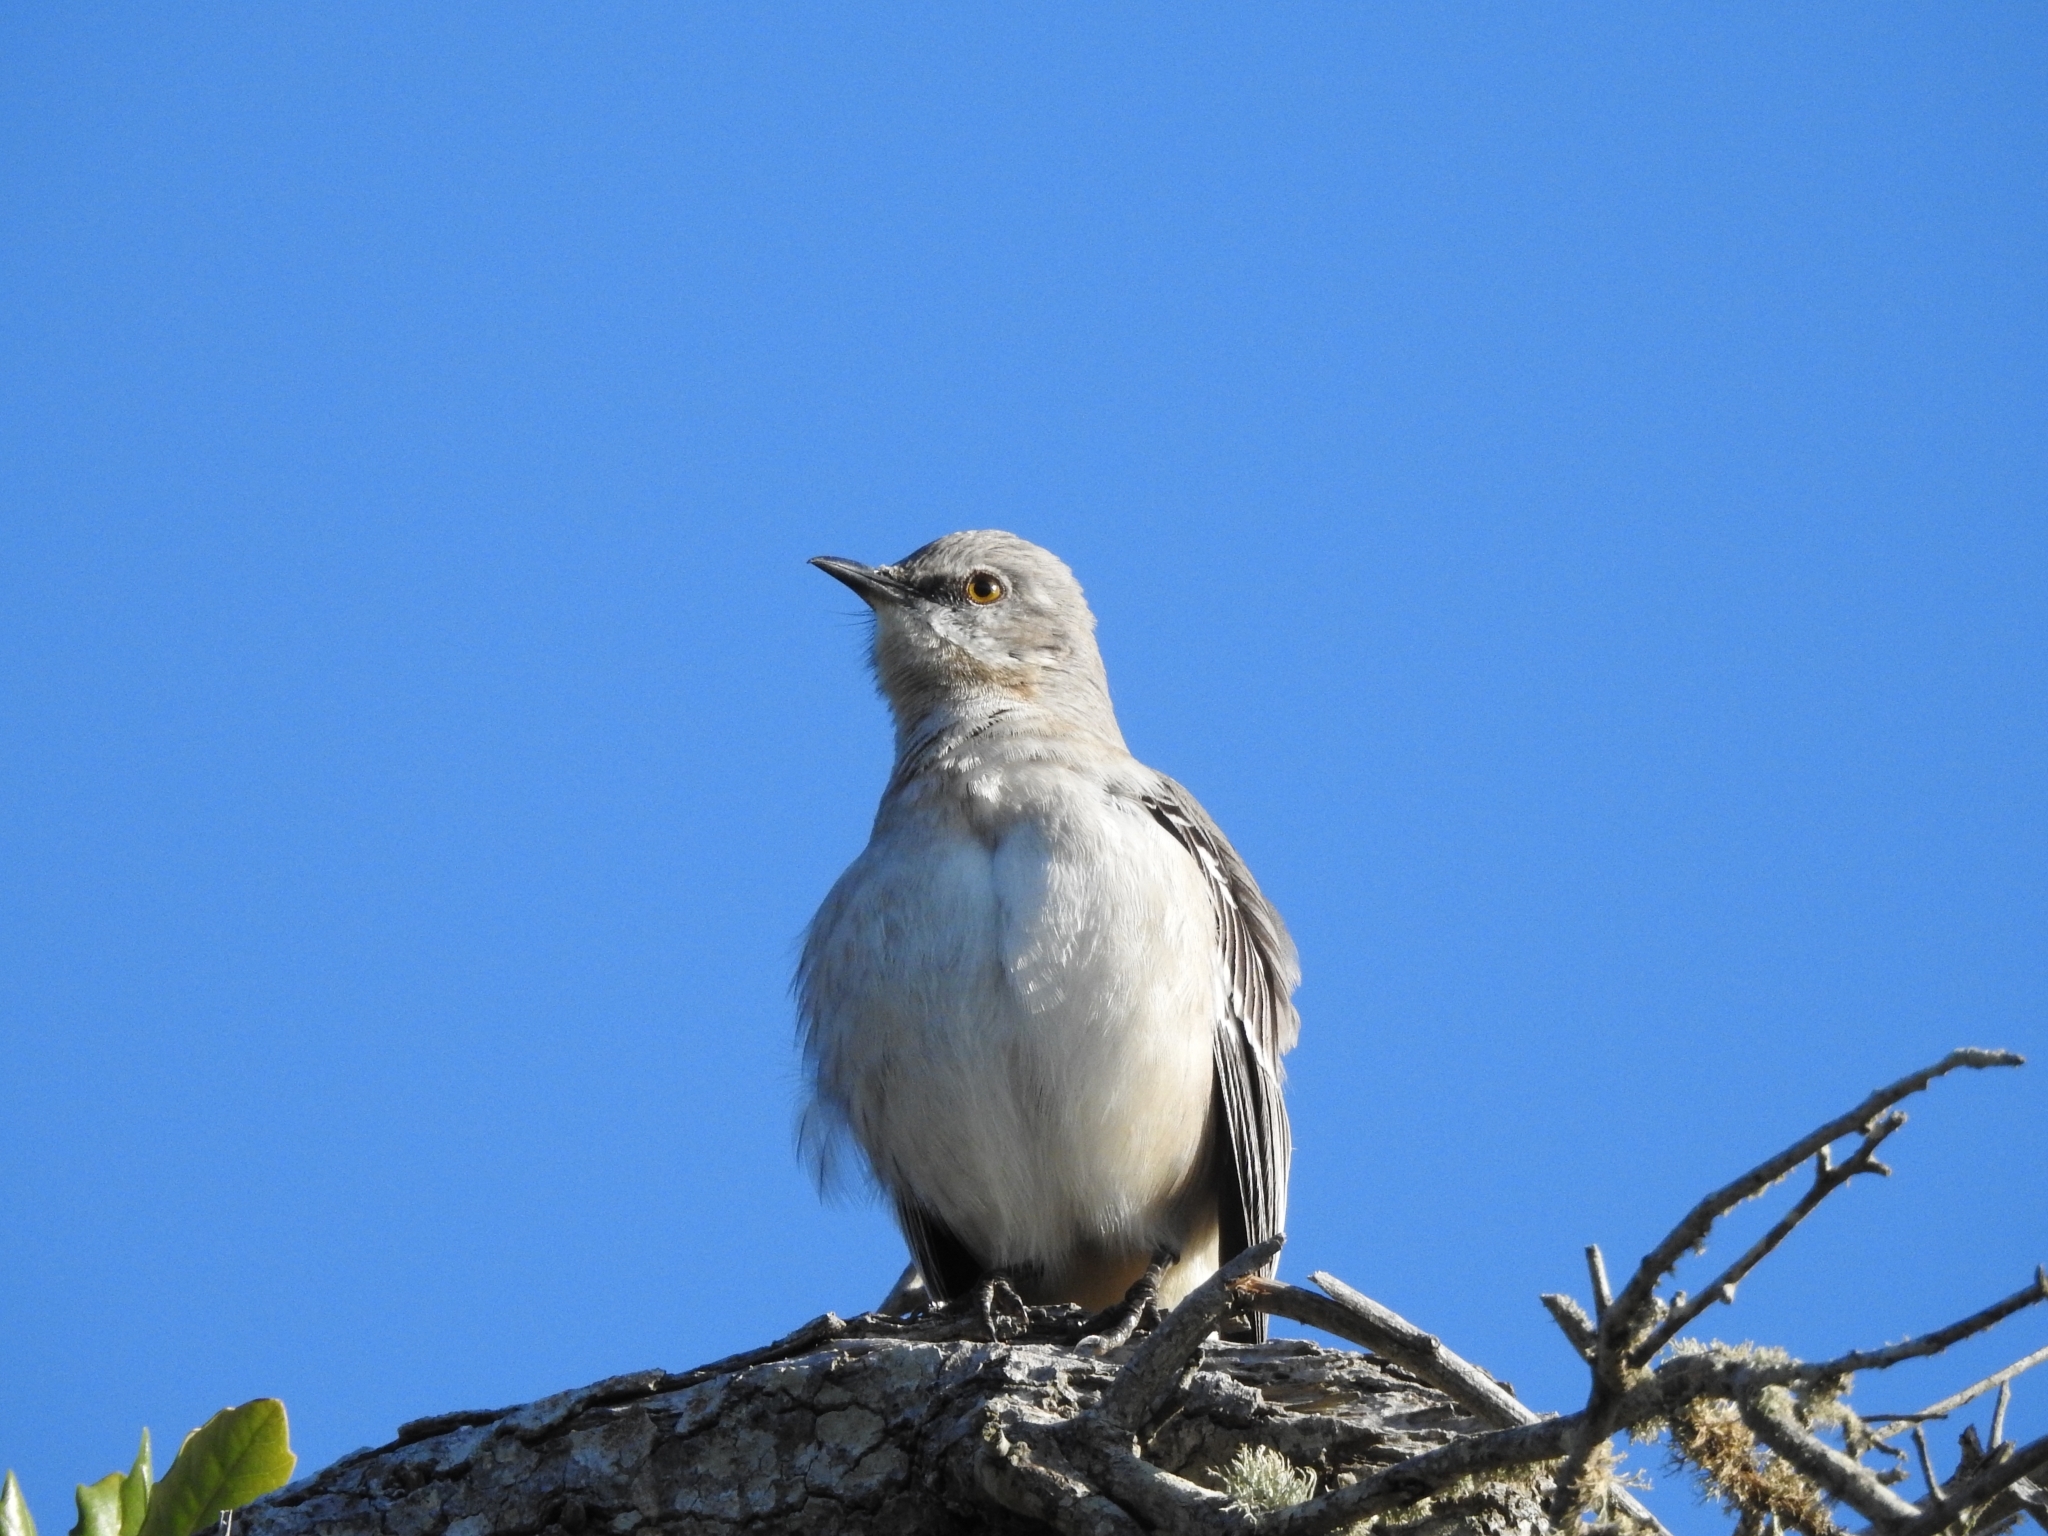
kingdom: Animalia
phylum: Chordata
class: Aves
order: Passeriformes
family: Mimidae
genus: Mimus
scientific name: Mimus polyglottos
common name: Northern mockingbird
